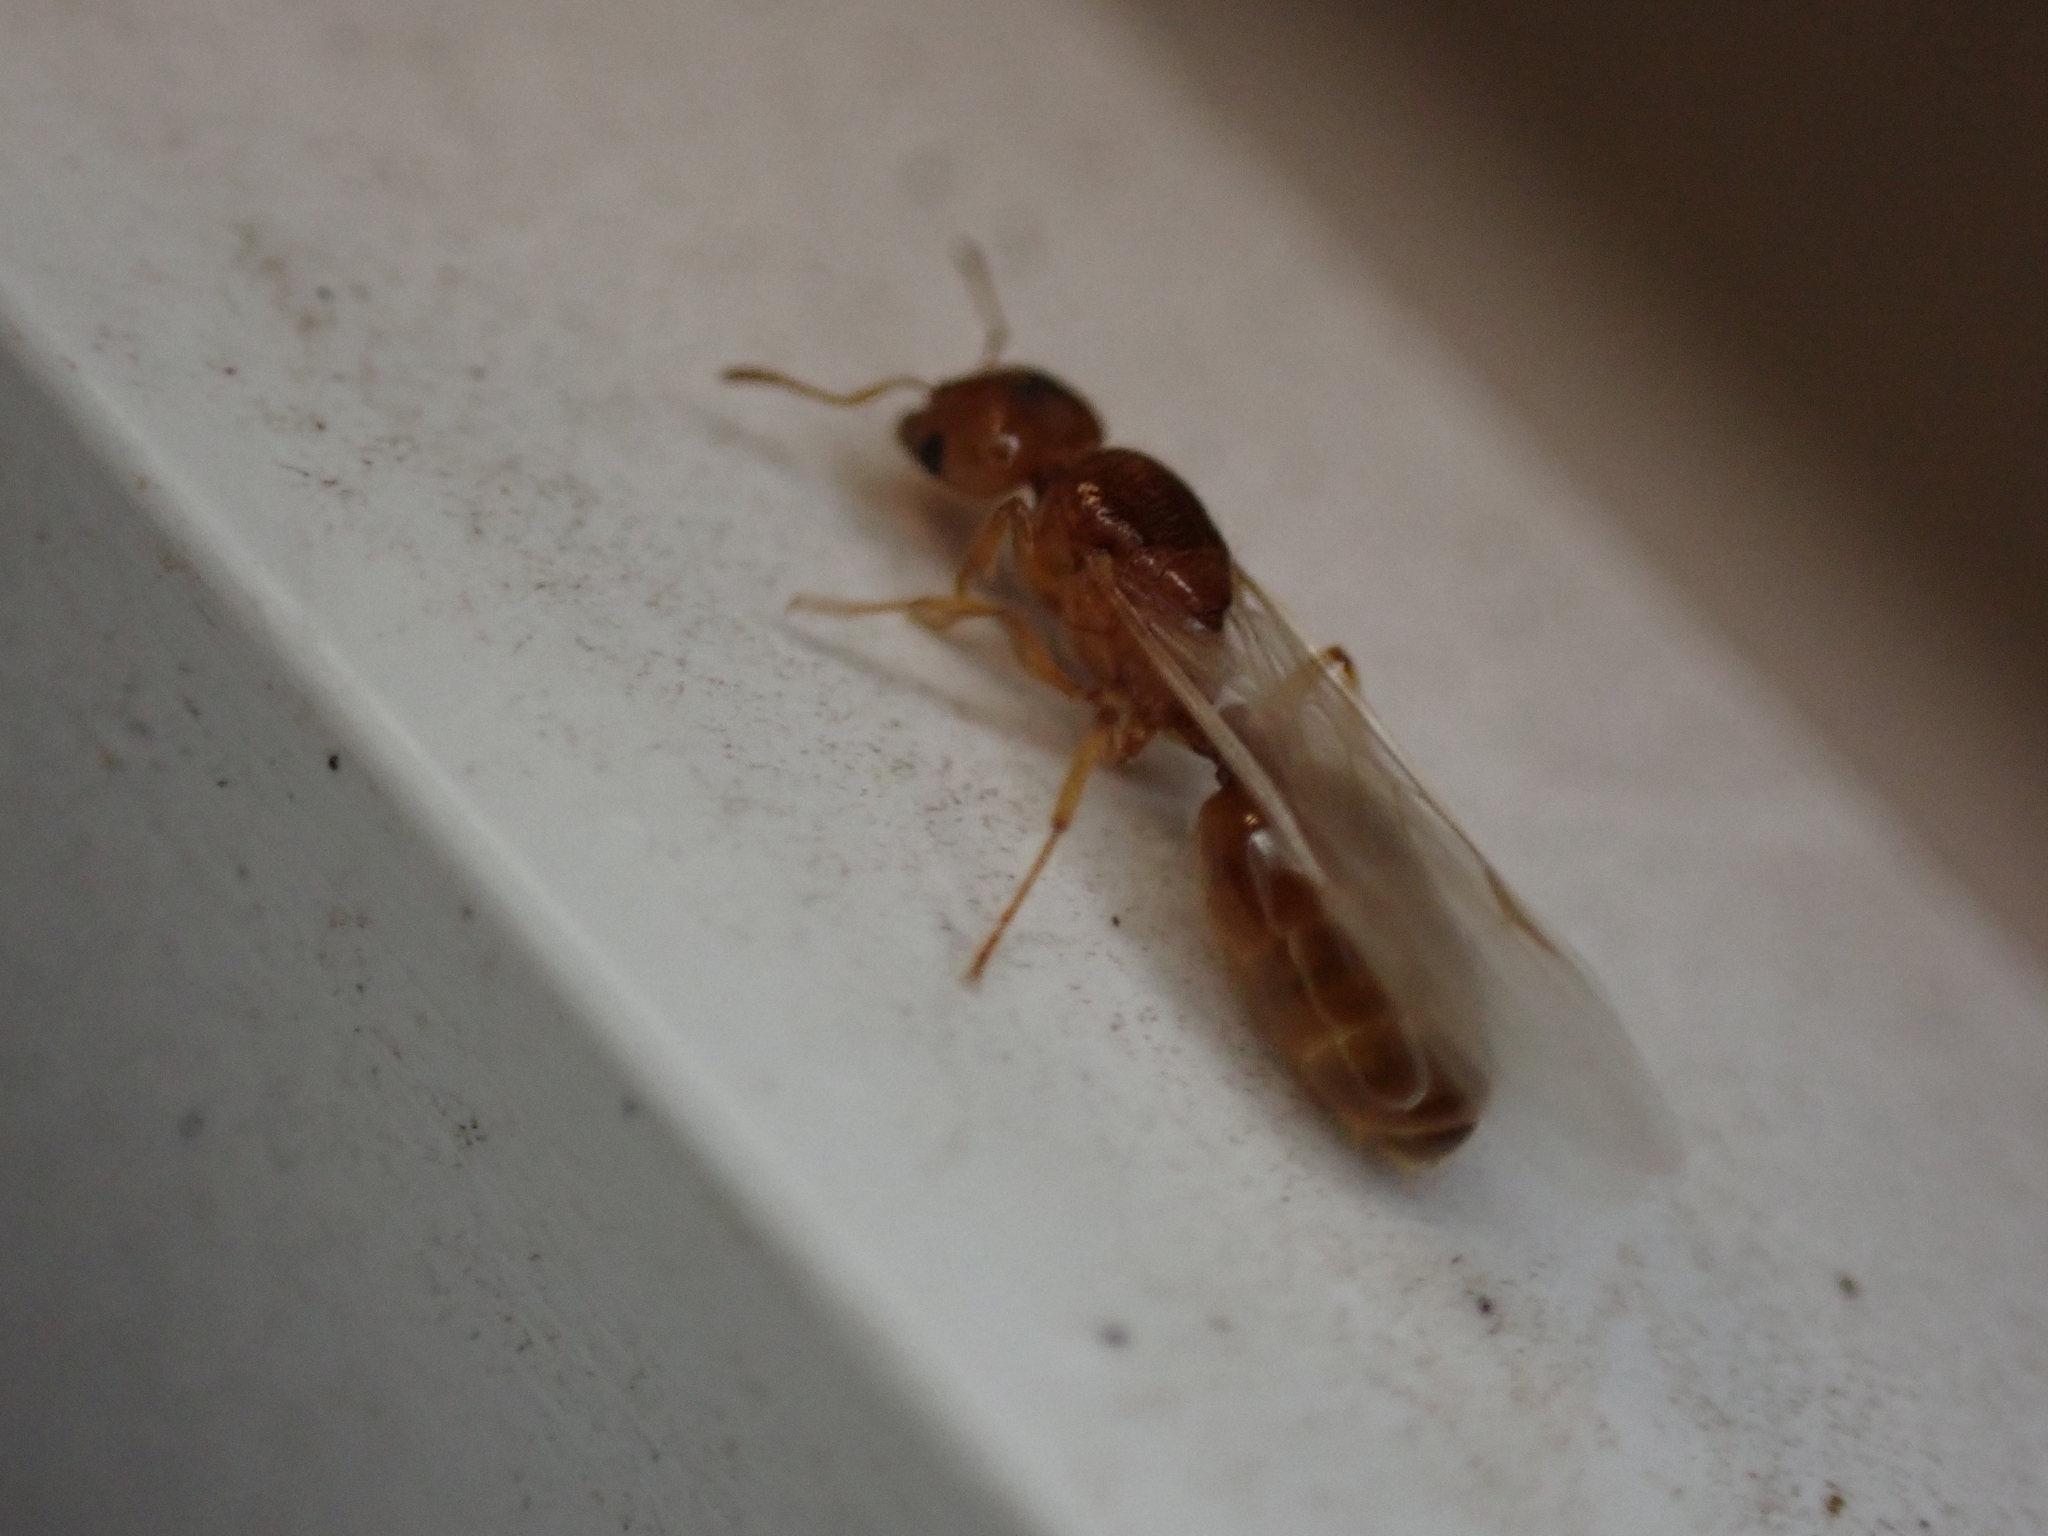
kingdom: Animalia
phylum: Arthropoda
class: Insecta
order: Hymenoptera
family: Formicidae
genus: Pheidole
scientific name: Pheidole bicarinata
